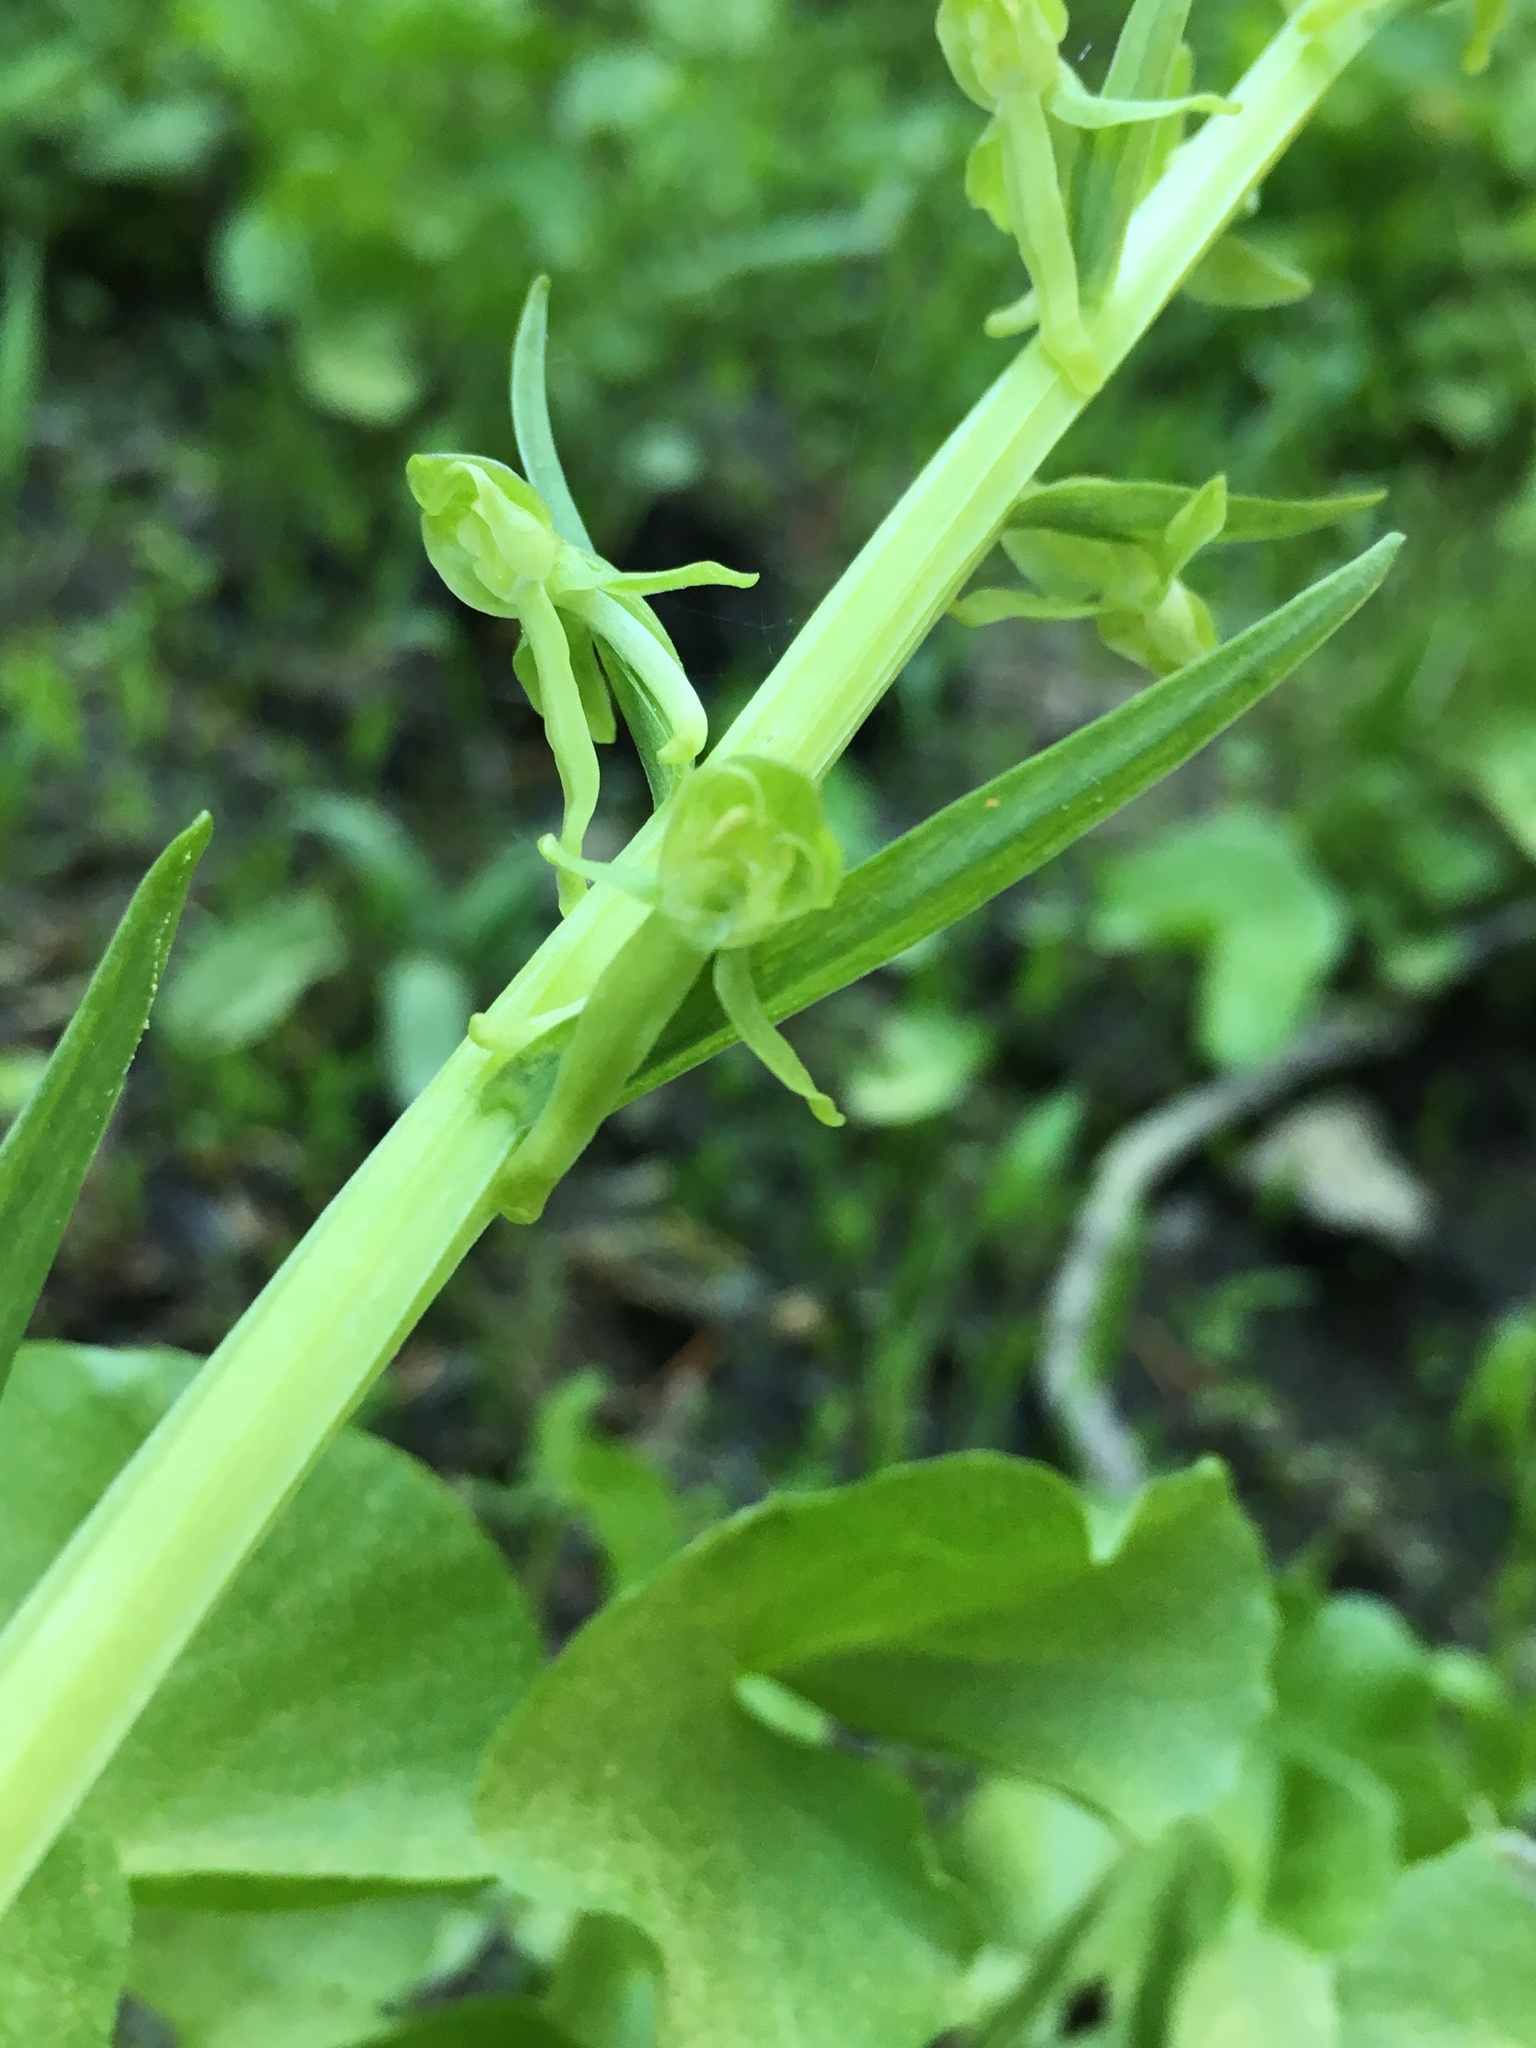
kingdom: Plantae
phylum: Tracheophyta
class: Liliopsida
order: Asparagales
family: Orchidaceae
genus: Platanthera
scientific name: Platanthera sparsiflora
